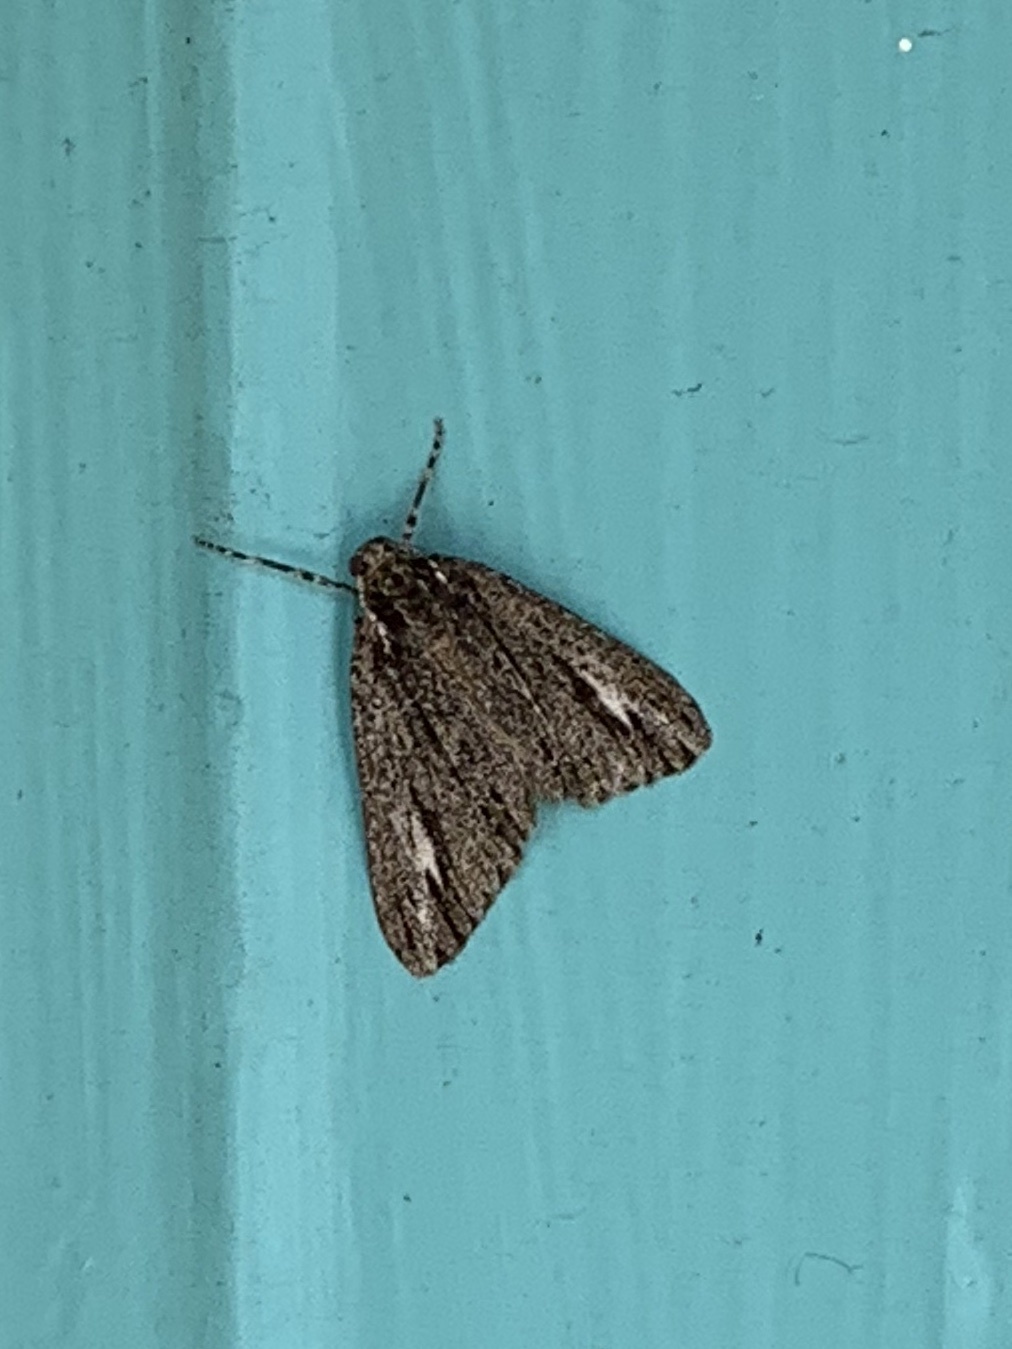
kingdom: Animalia
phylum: Arthropoda
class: Insecta
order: Lepidoptera
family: Geometridae
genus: Carphoides
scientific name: Carphoides incopriarius
